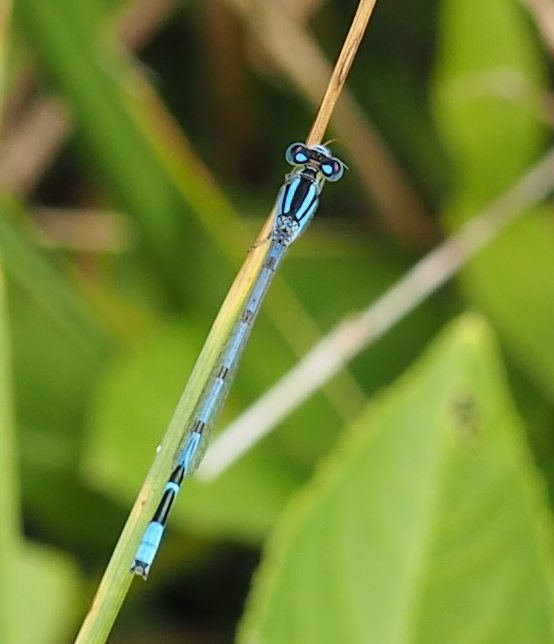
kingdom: Animalia
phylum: Arthropoda
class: Insecta
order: Odonata
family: Coenagrionidae
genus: Enallagma
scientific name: Enallagma civile
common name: Damselfly
